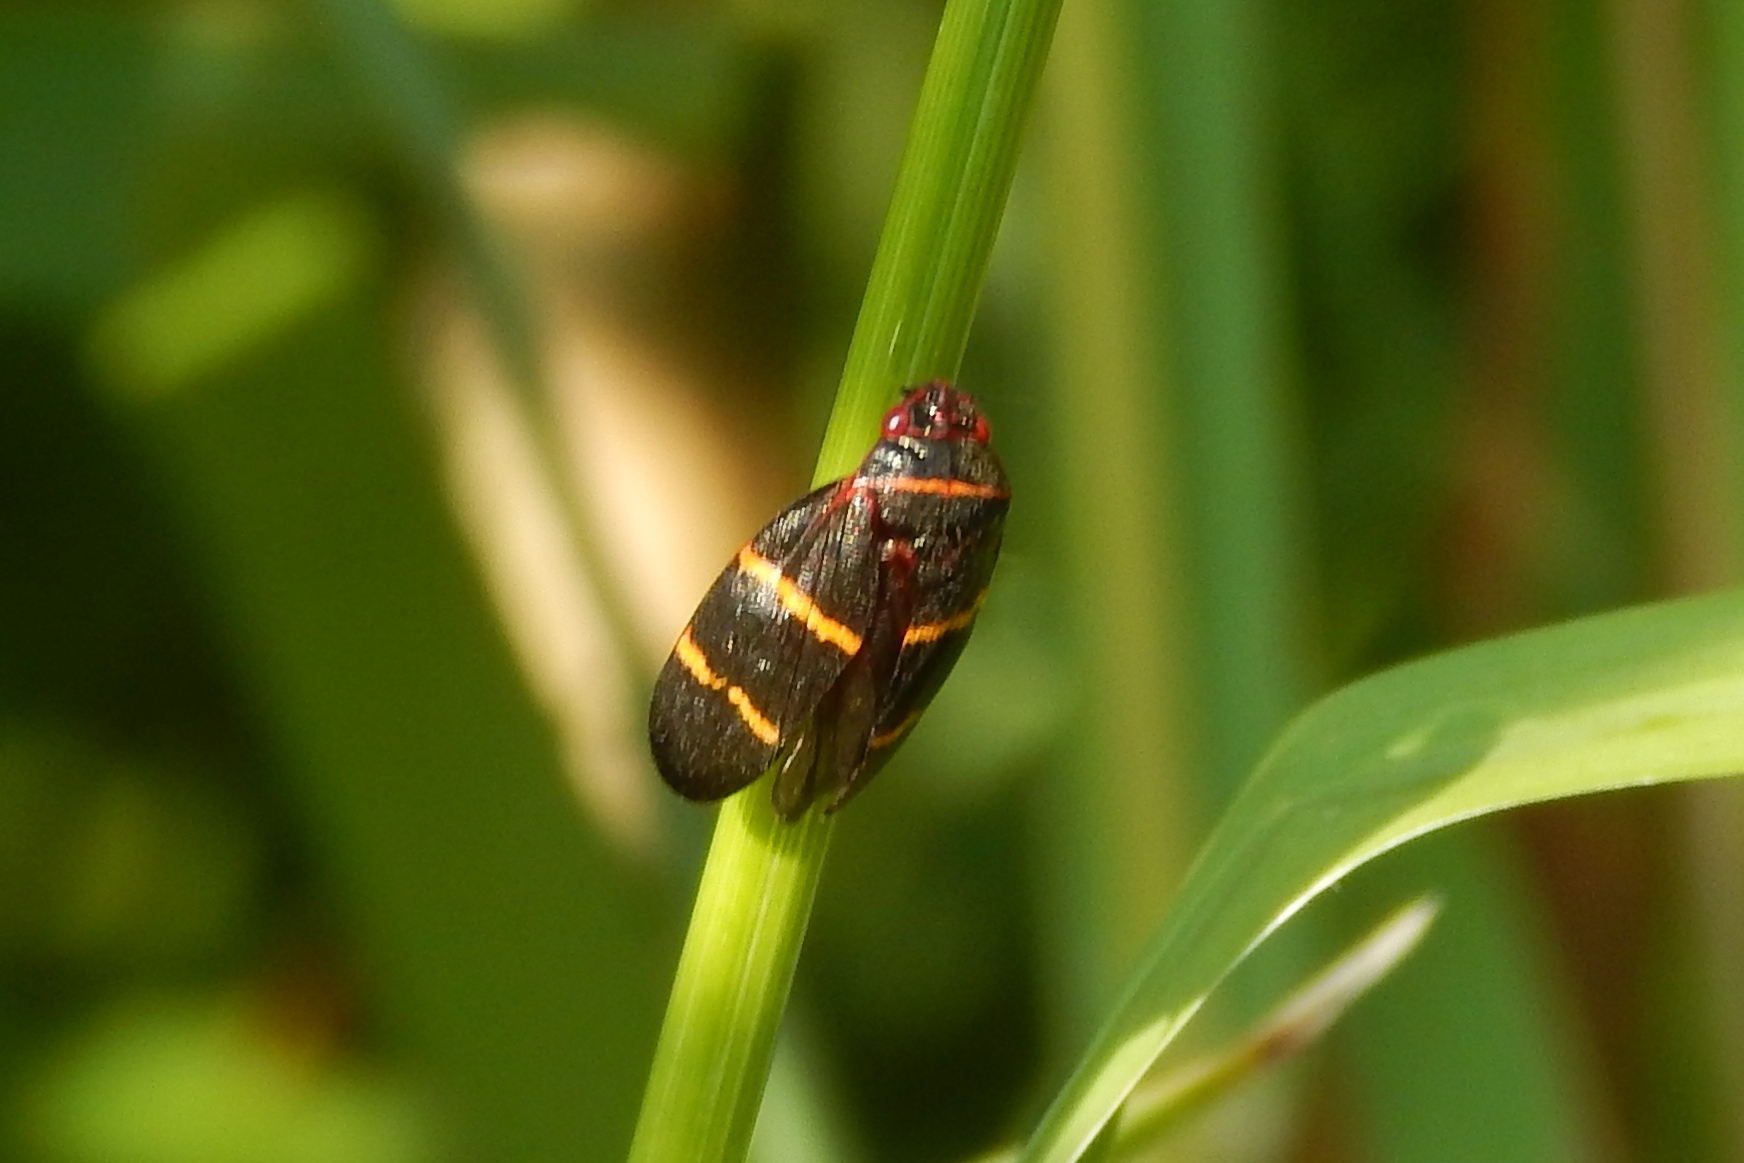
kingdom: Animalia
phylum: Arthropoda
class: Insecta
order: Hemiptera
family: Cercopidae
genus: Prosapia
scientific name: Prosapia bicincta
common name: Twolined spittlebug
